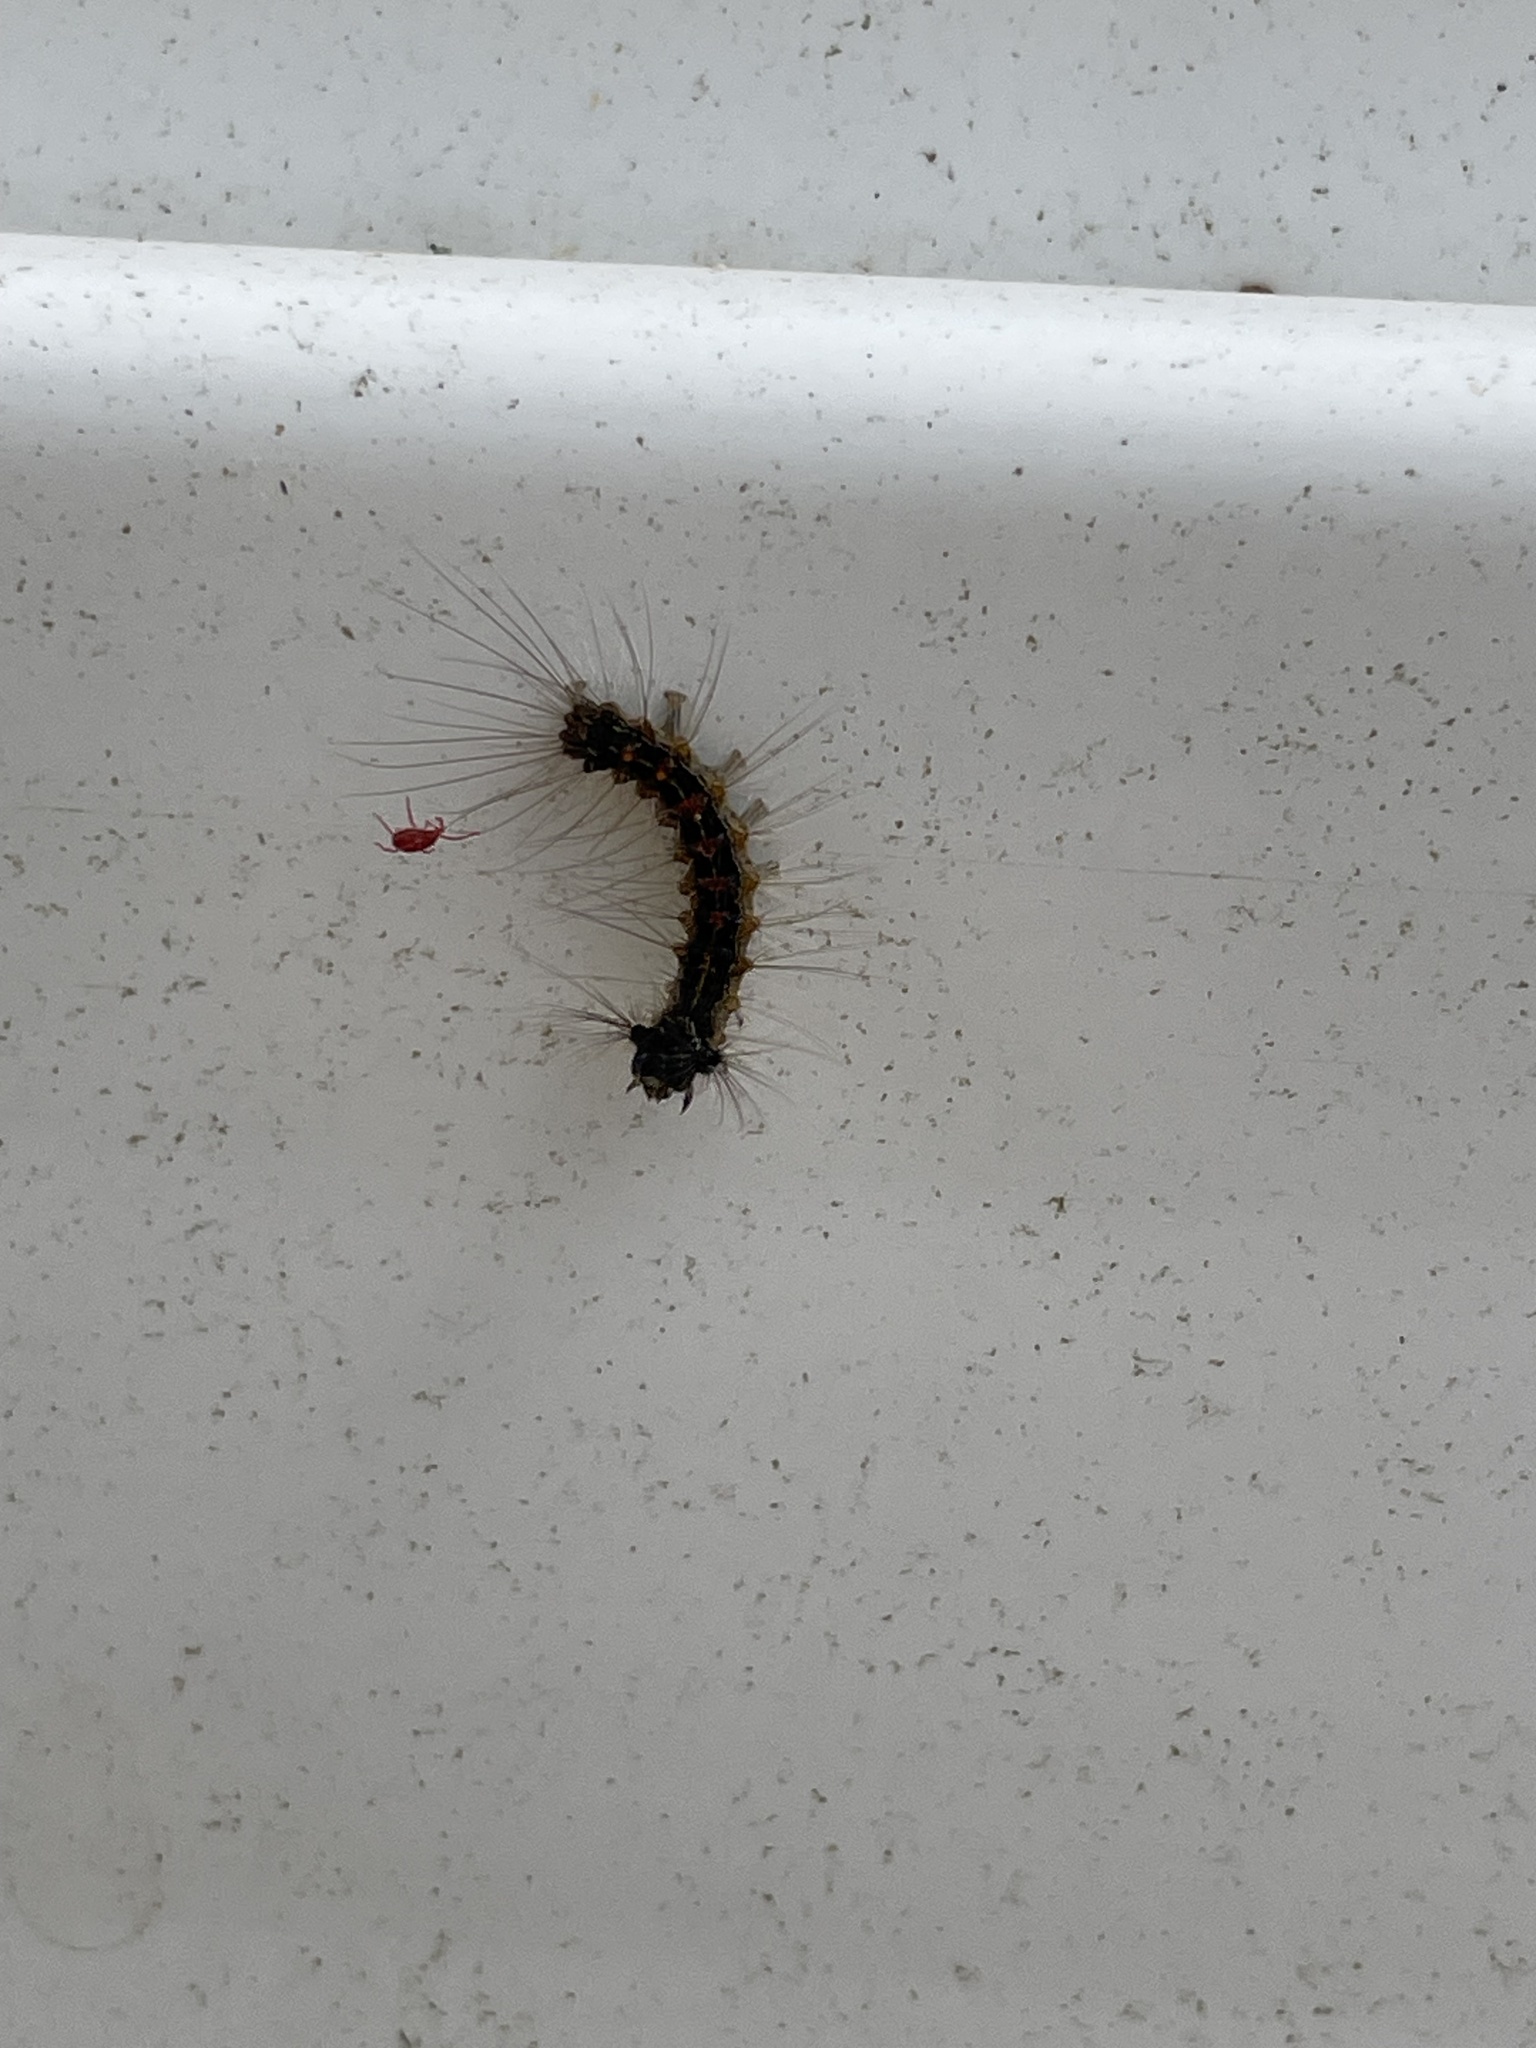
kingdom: Animalia
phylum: Arthropoda
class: Insecta
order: Lepidoptera
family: Erebidae
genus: Lymantria
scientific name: Lymantria dispar
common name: Gypsy moth
